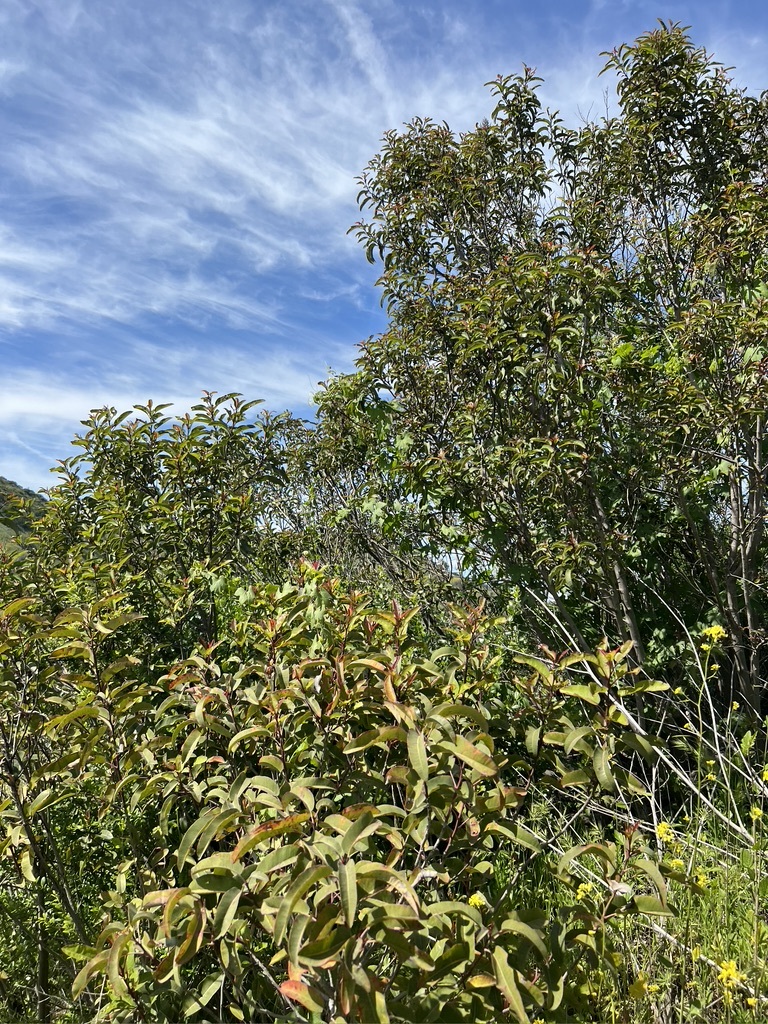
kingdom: Plantae
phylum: Tracheophyta
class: Magnoliopsida
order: Sapindales
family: Anacardiaceae
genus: Malosma
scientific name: Malosma laurina
